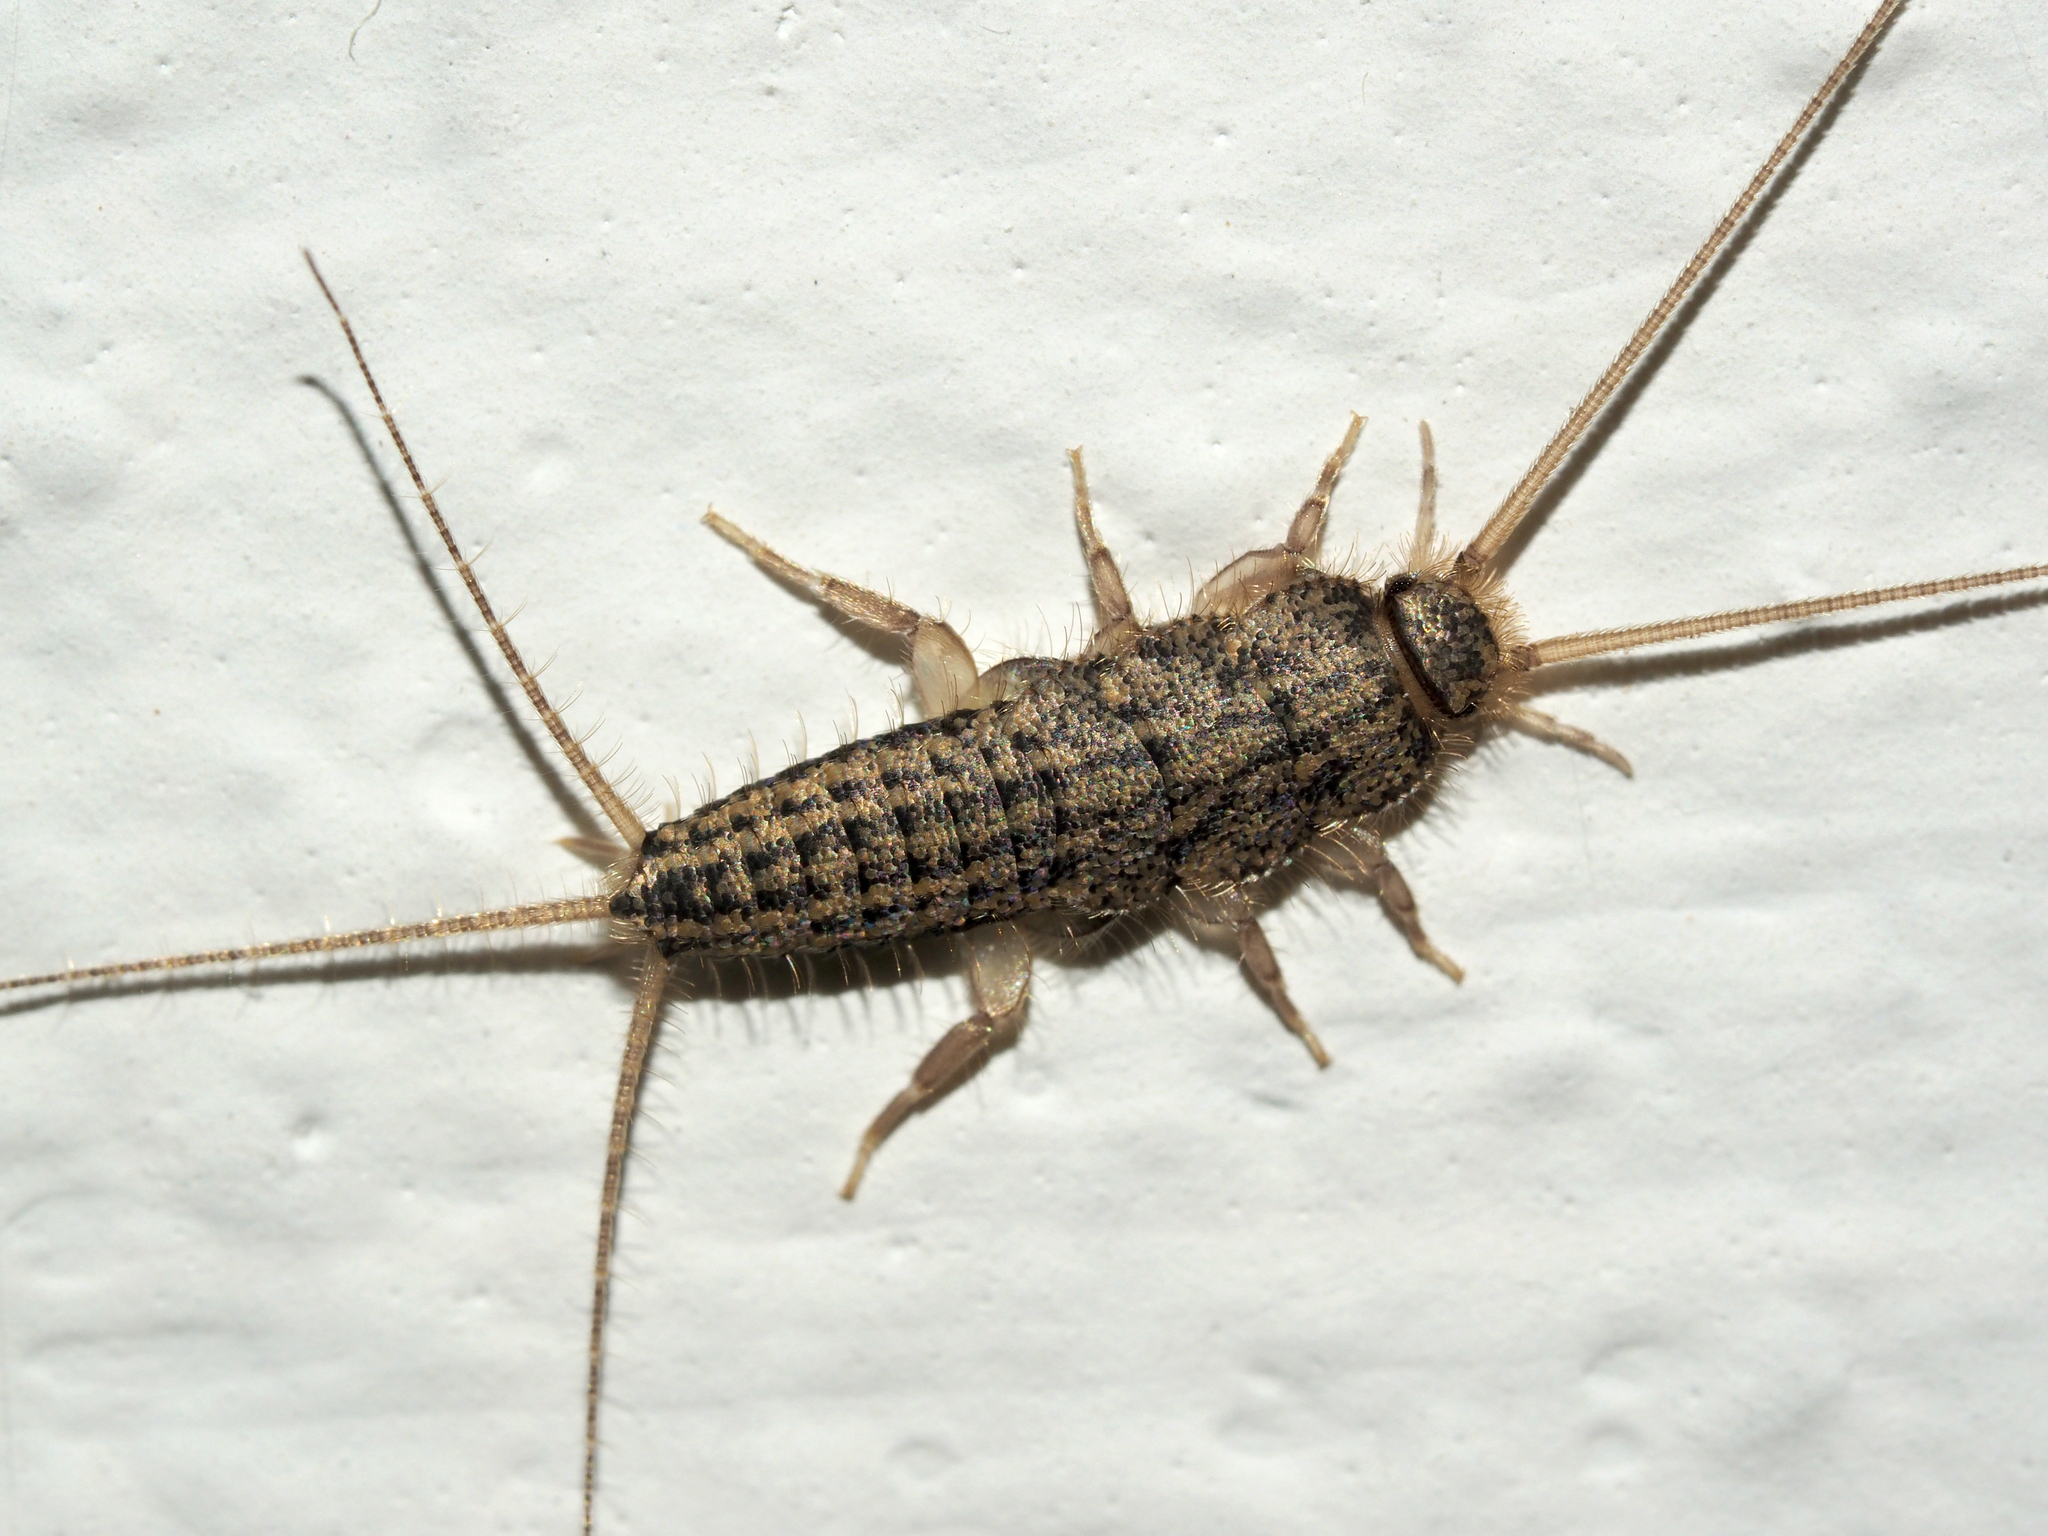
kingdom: Animalia
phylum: Arthropoda
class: Insecta
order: Zygentoma
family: Lepismatidae
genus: Ctenolepisma
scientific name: Ctenolepisma lineata
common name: Four-lined silverfish
